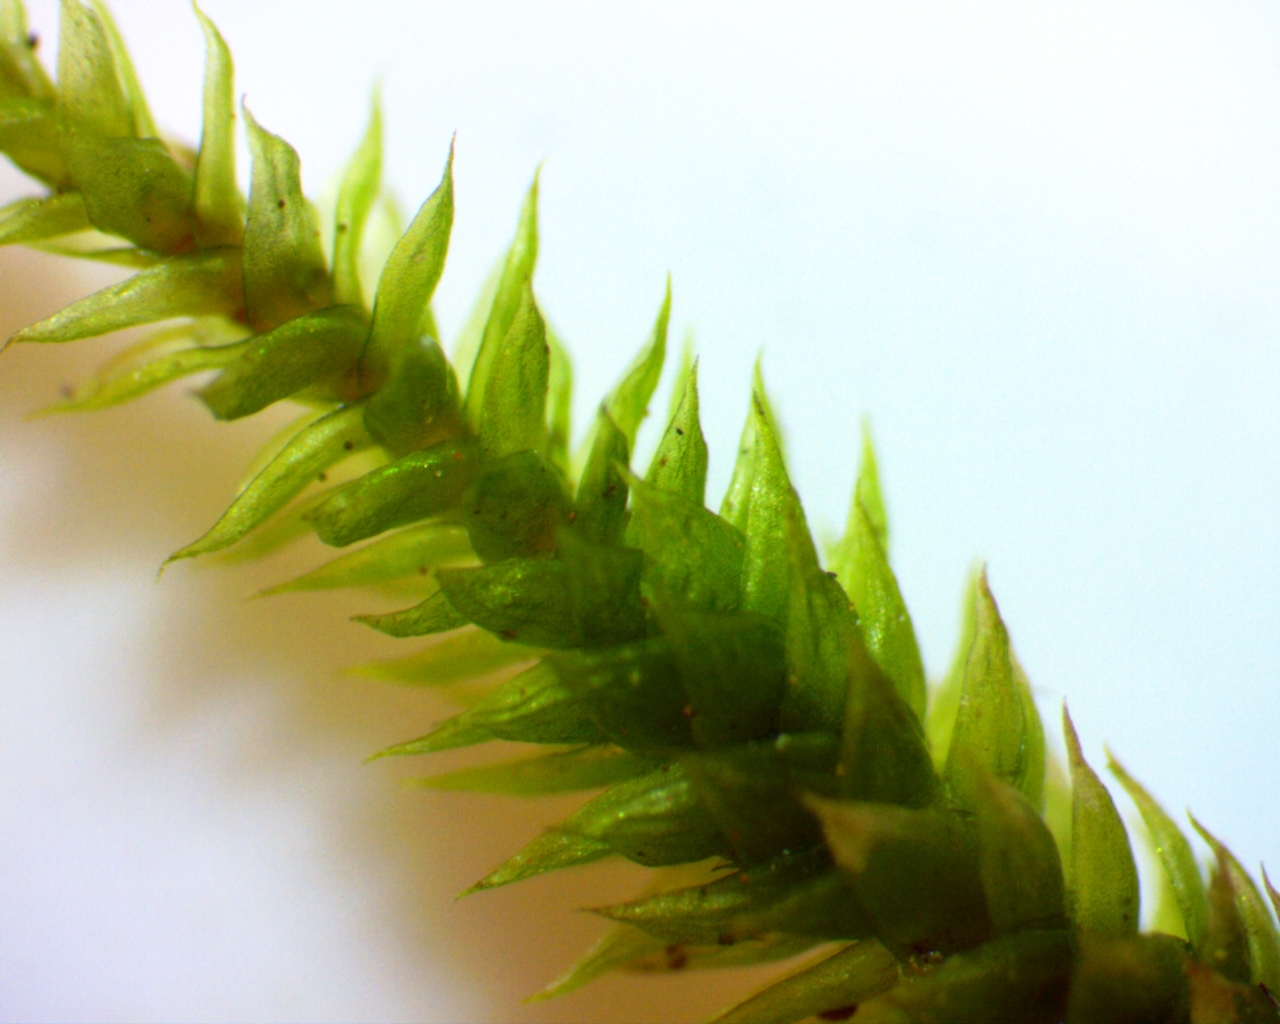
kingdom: Plantae
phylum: Bryophyta
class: Bryopsida
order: Hypnales
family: Leucodontaceae
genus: Leucodon
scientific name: Leucodon julaceus
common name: Smooth hook moss
